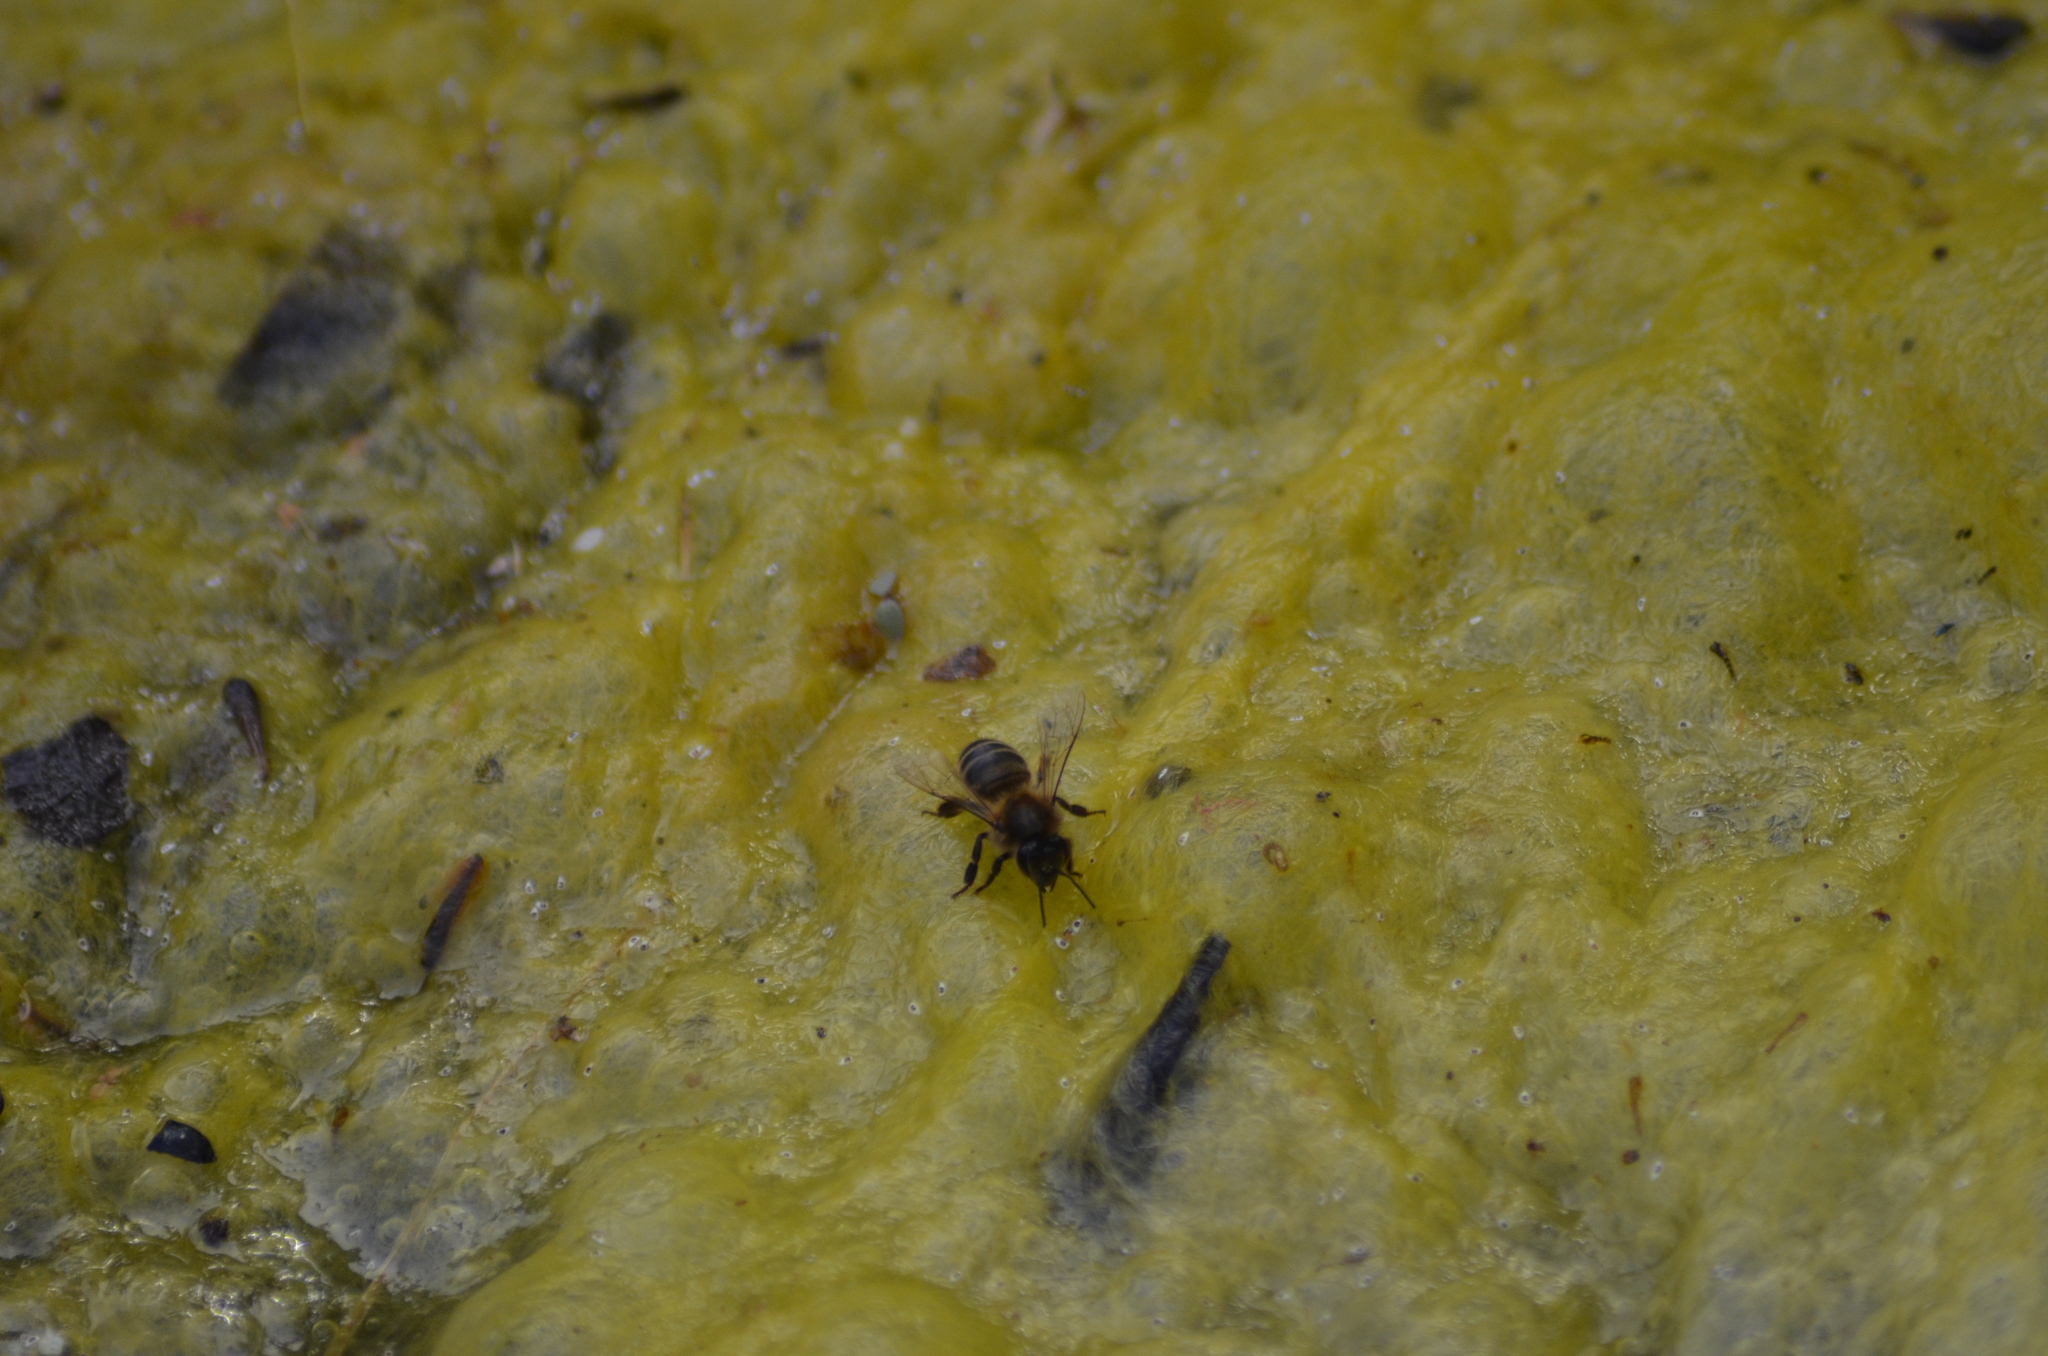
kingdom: Animalia
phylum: Arthropoda
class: Insecta
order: Hymenoptera
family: Apidae
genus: Apis
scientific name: Apis mellifera
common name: Honey bee
